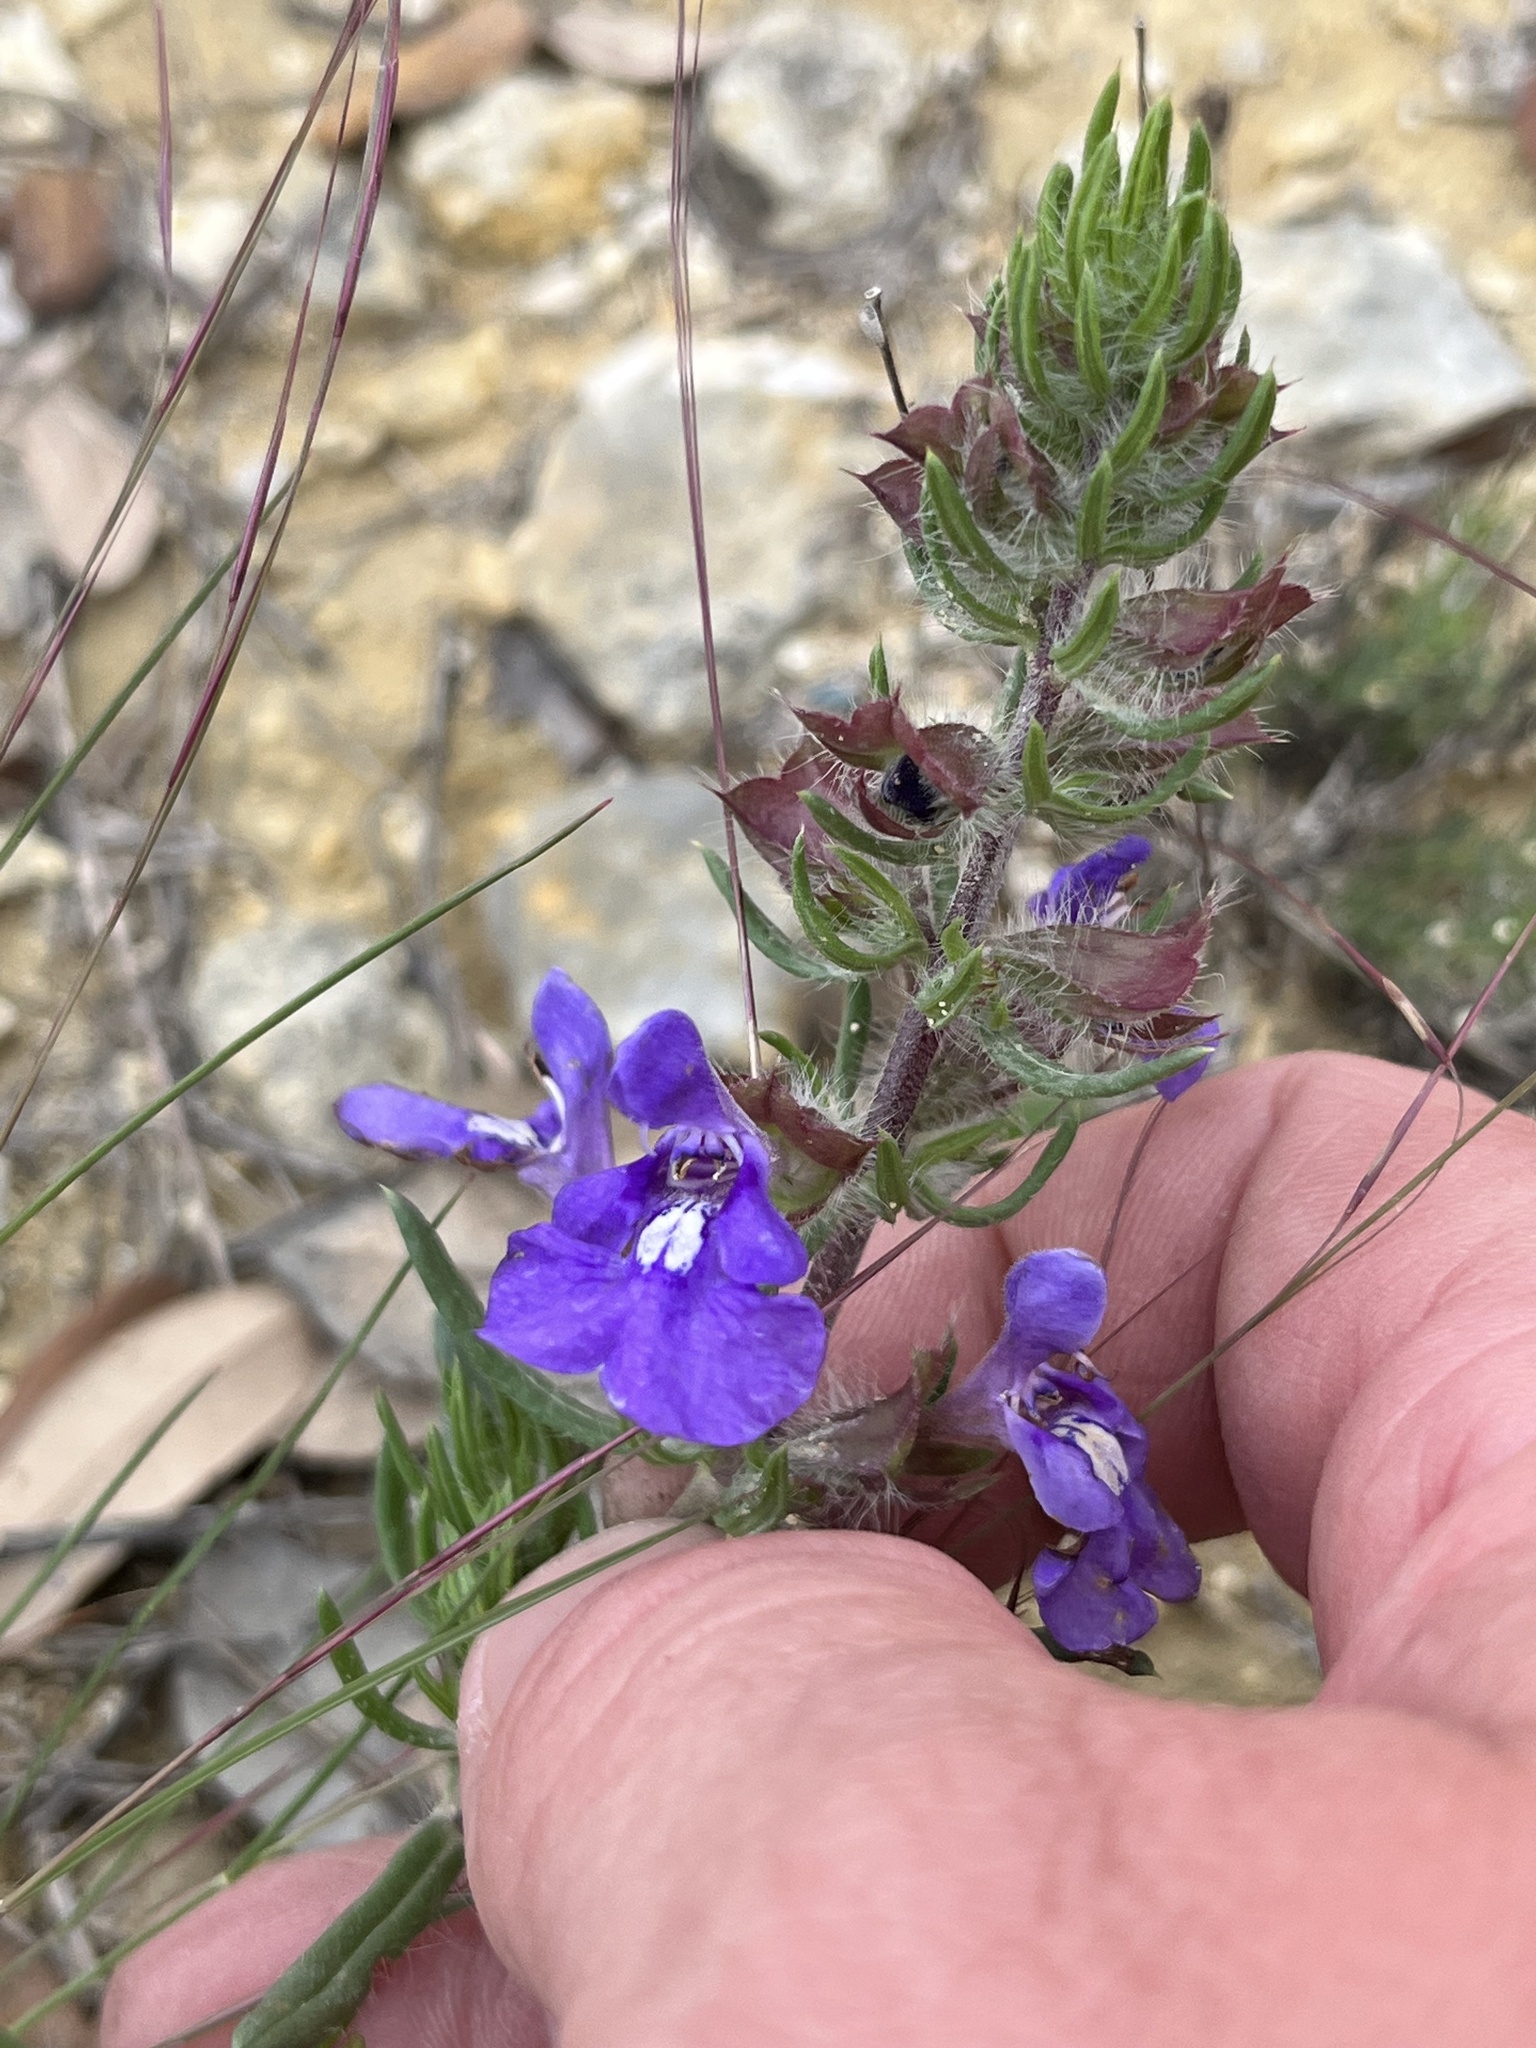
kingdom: Plantae
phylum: Tracheophyta
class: Magnoliopsida
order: Lamiales
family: Lamiaceae
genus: Salvia
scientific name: Salvia texana
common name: Texas sage
